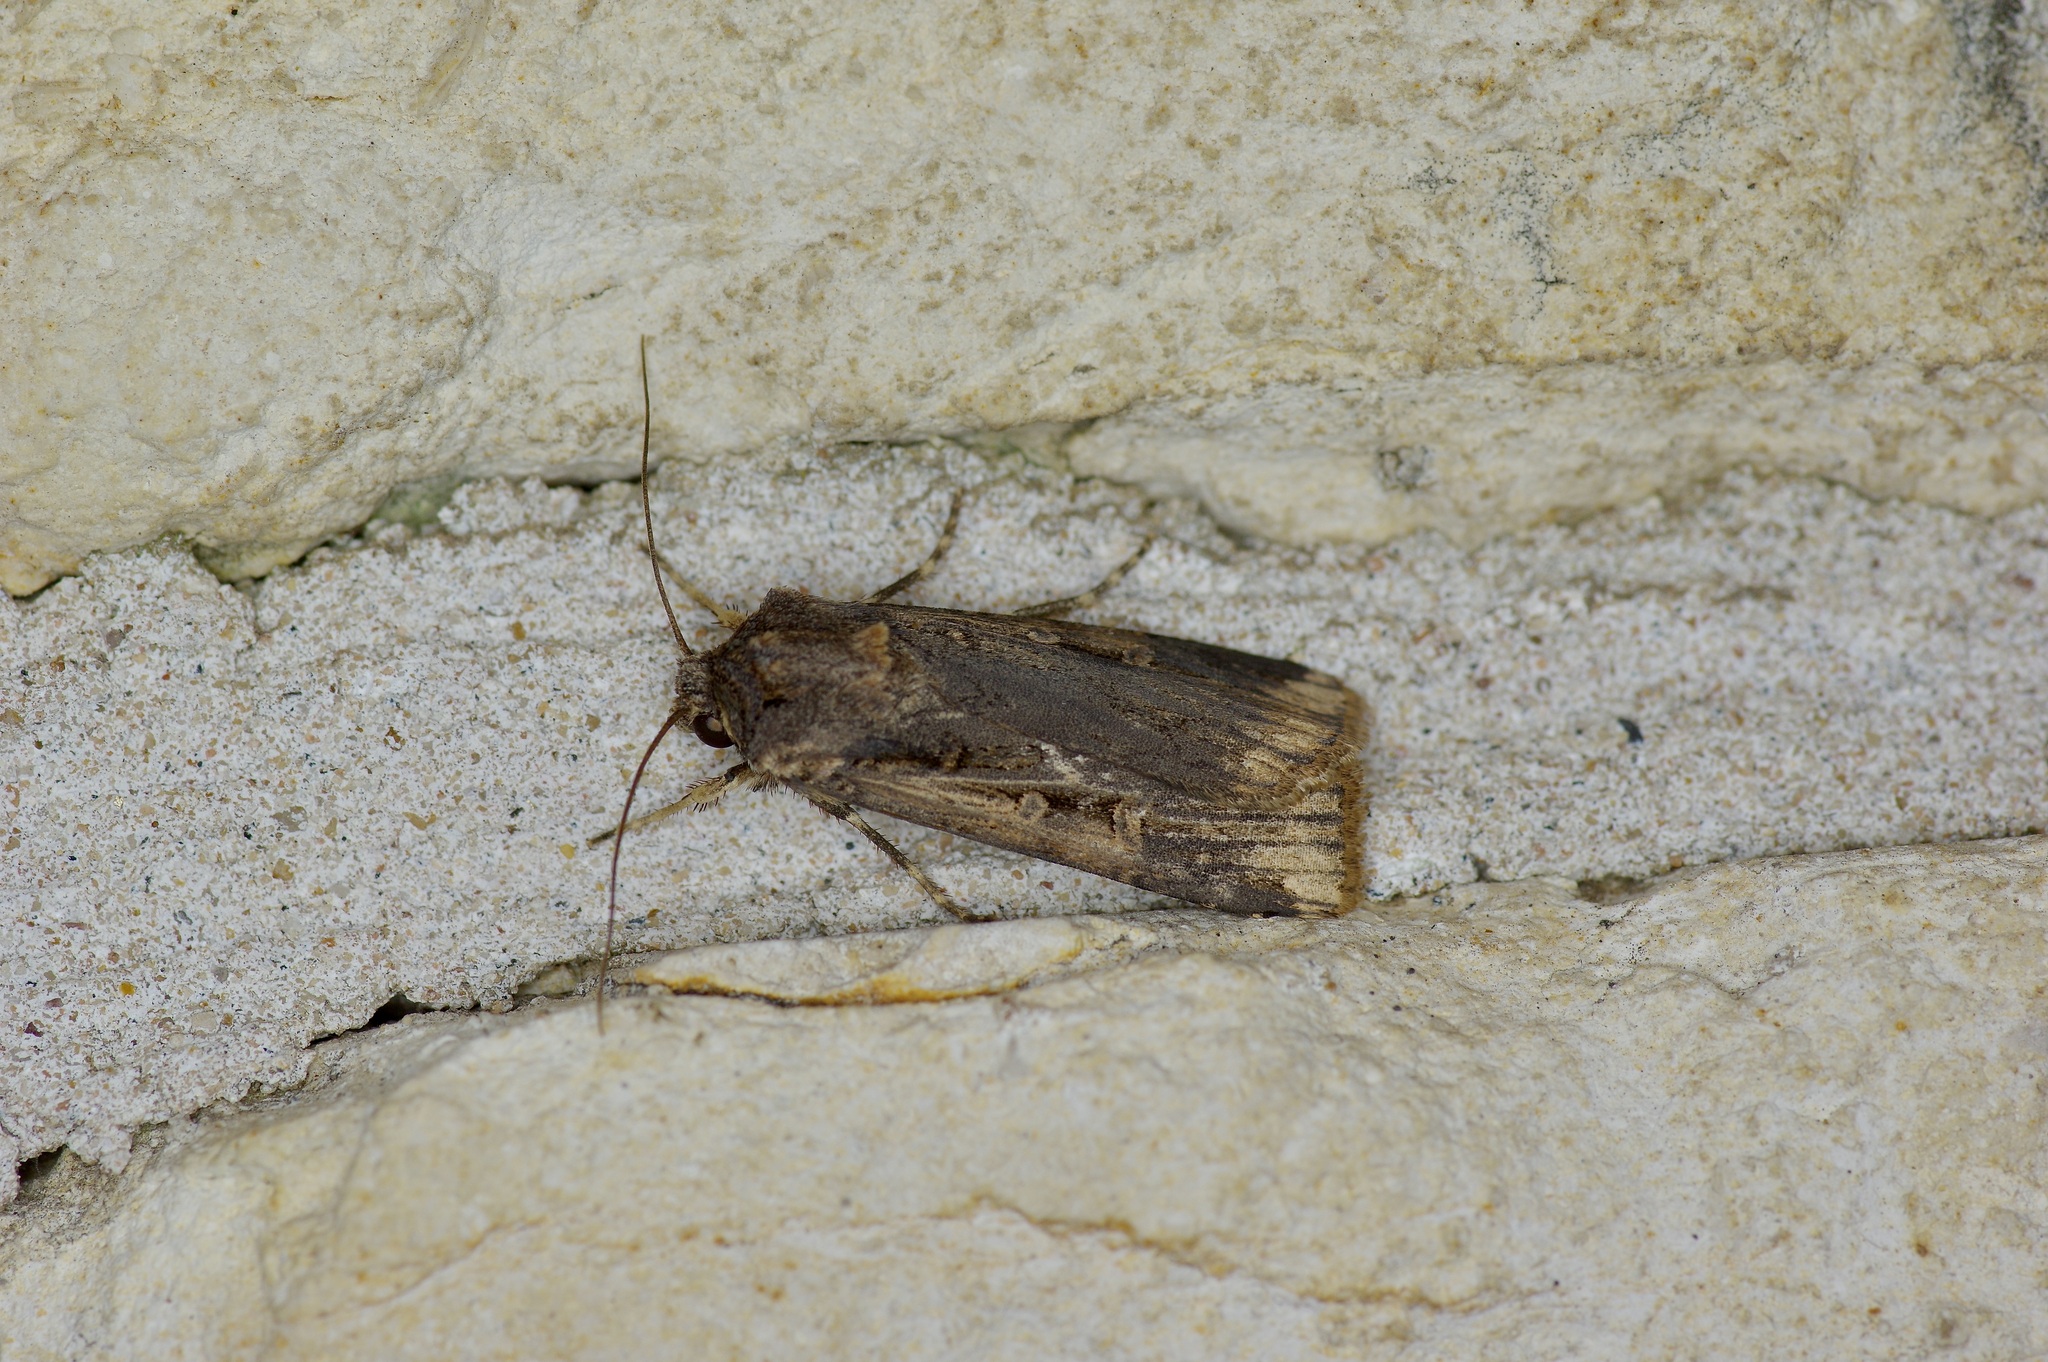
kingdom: Animalia
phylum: Arthropoda
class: Insecta
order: Lepidoptera
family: Noctuidae
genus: Feltia
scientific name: Feltia subterranea
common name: Granulate cutworm
